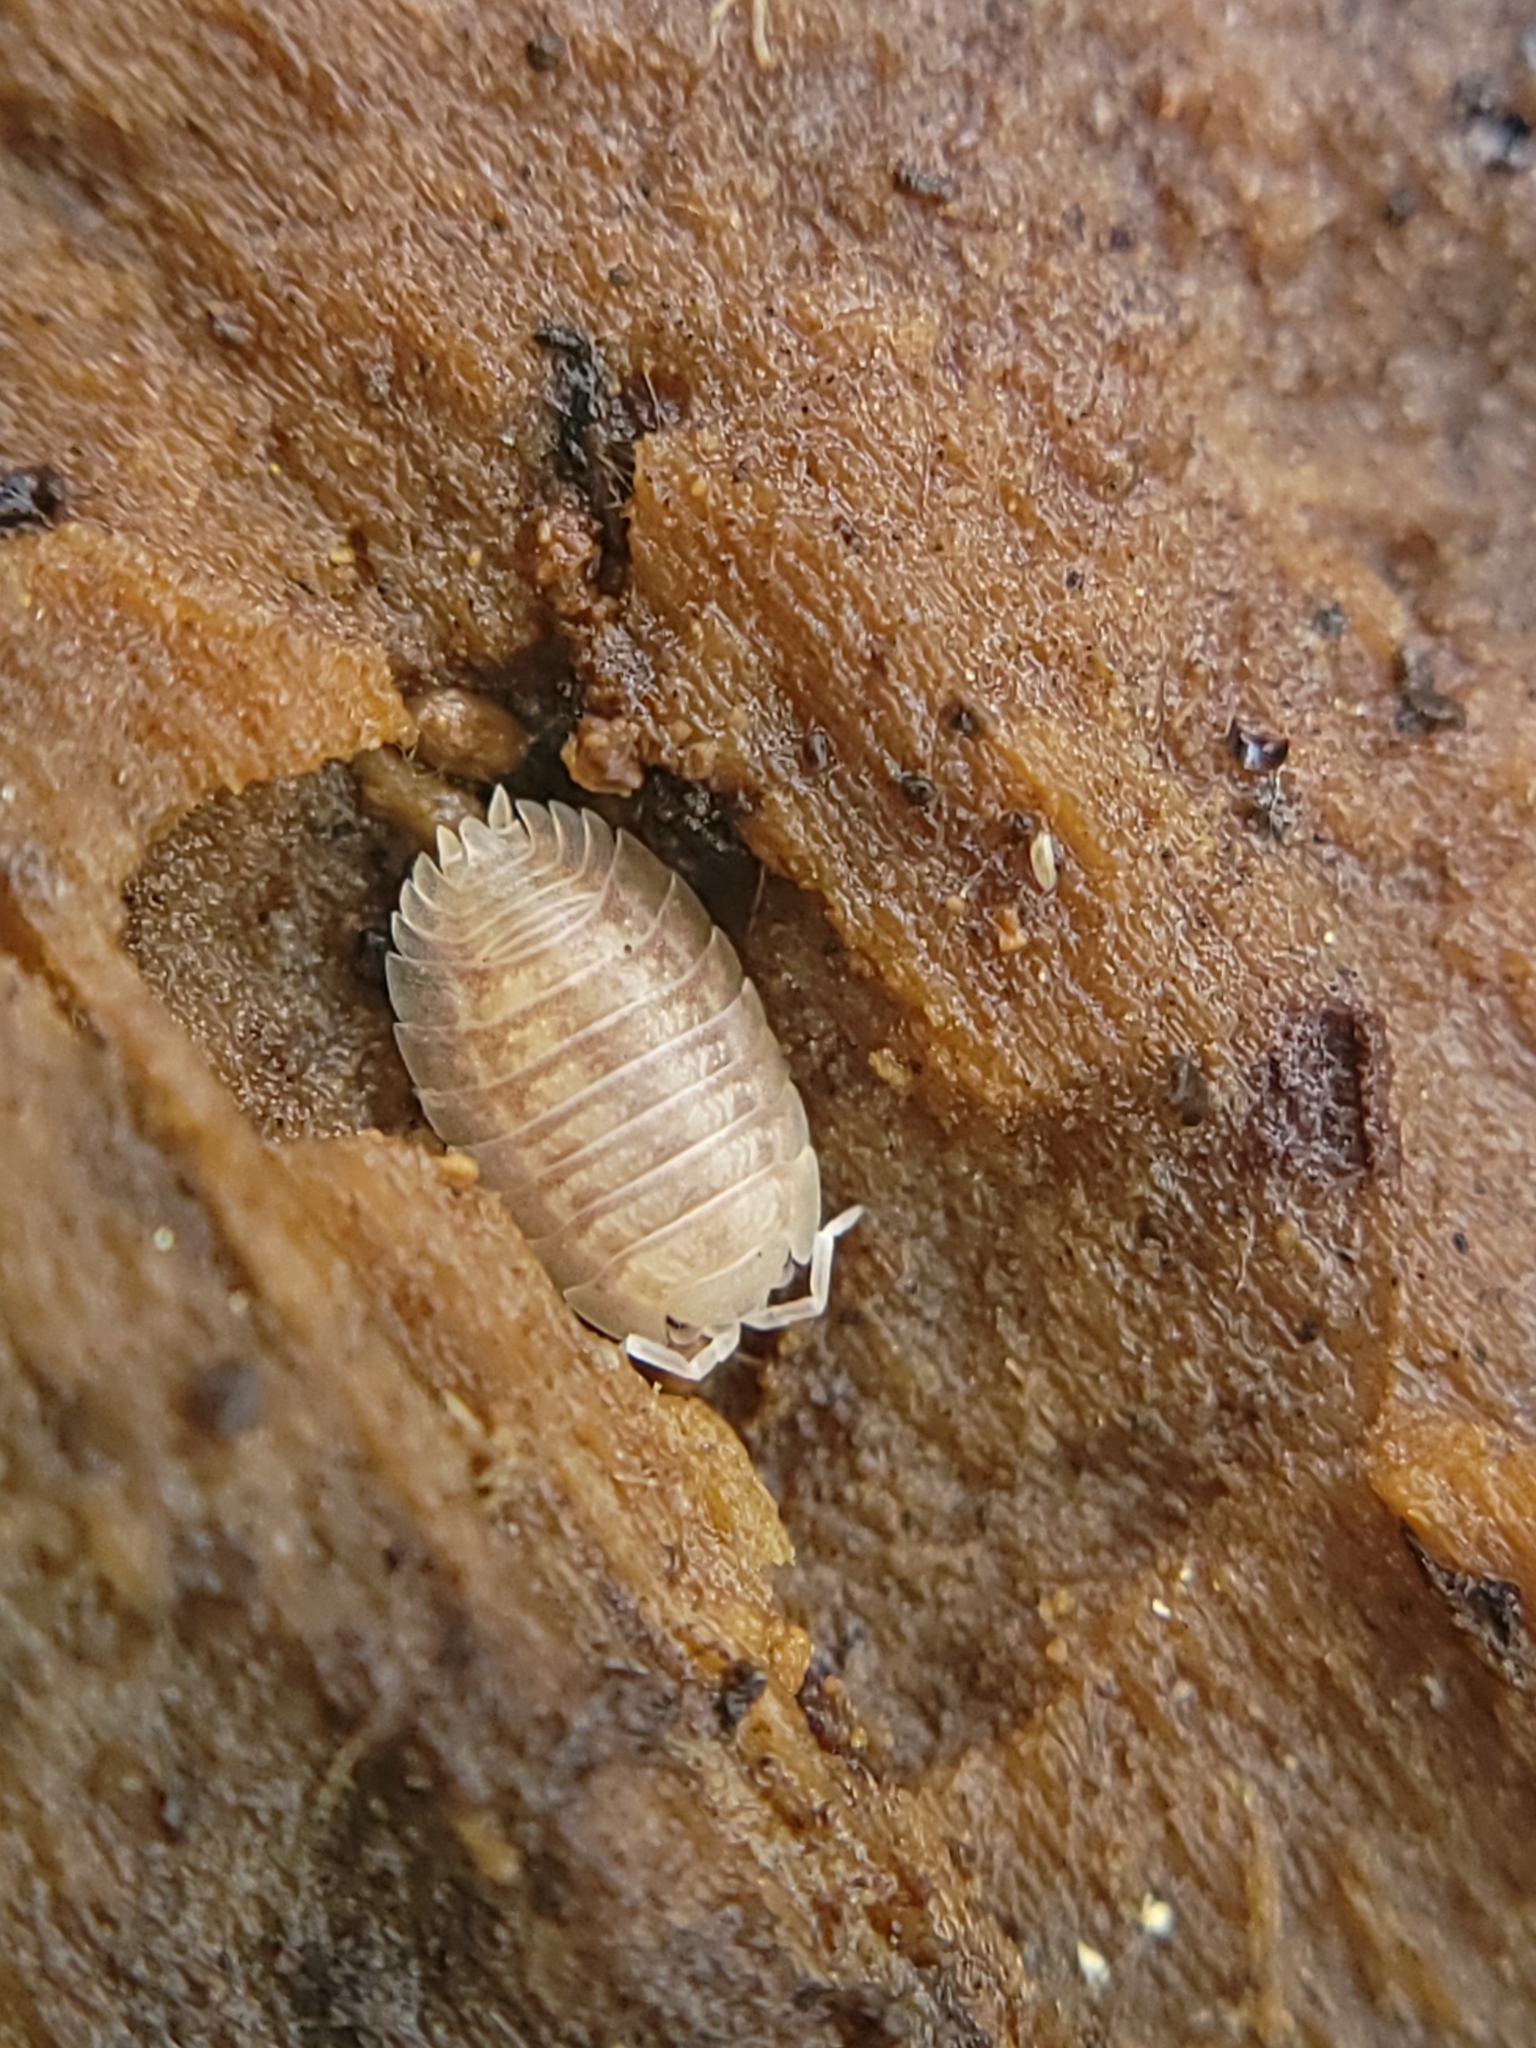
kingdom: Animalia
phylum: Arthropoda
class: Malacostraca
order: Isopoda
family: Porcellionidae
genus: Porcellio
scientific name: Porcellio dilatatus
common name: Isopod
